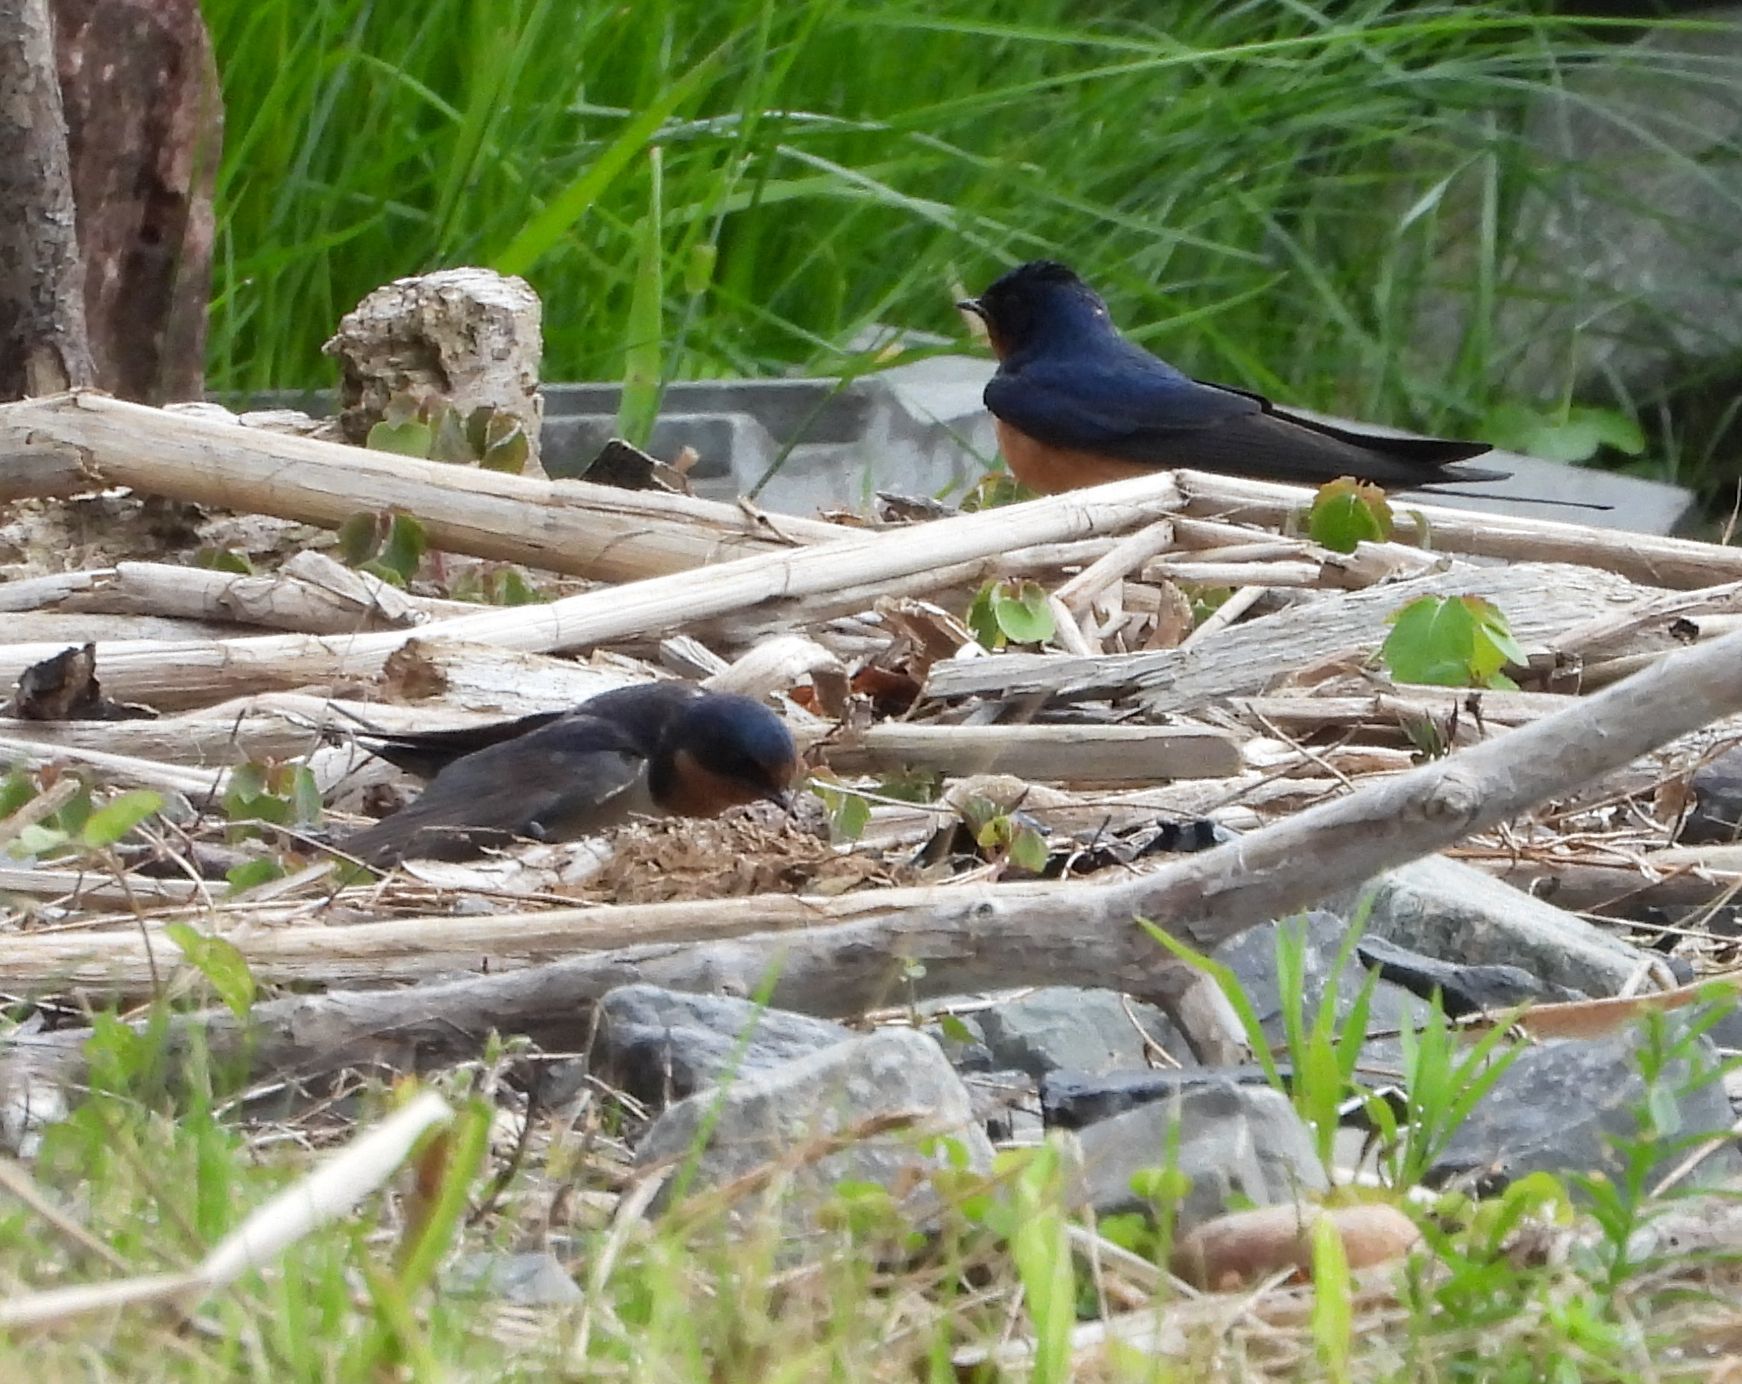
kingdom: Animalia
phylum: Chordata
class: Aves
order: Passeriformes
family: Hirundinidae
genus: Hirundo
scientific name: Hirundo rustica
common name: Barn swallow
